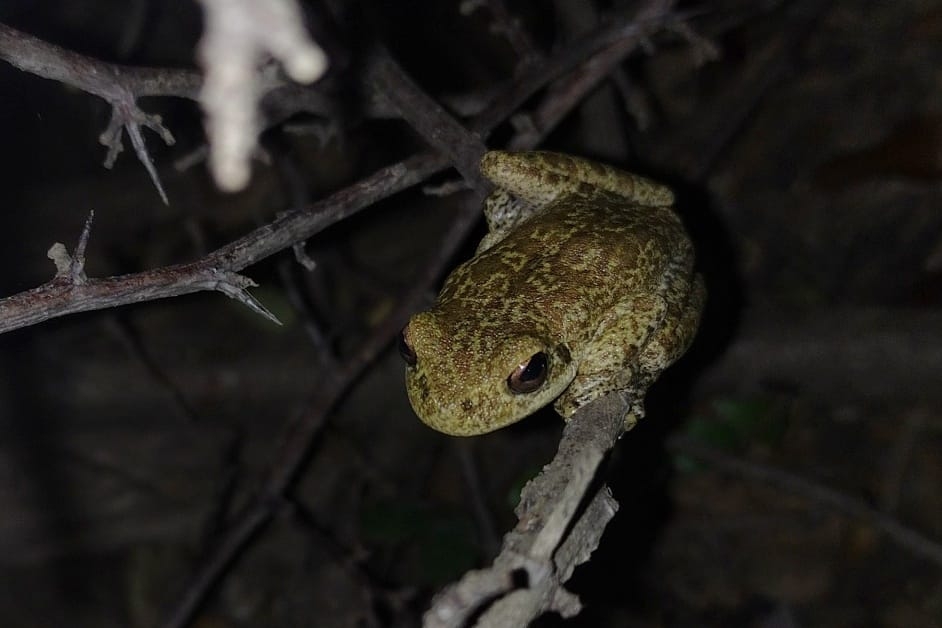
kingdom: Animalia
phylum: Chordata
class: Amphibia
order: Anura
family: Hylidae
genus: Boana
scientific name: Boana cordobae
